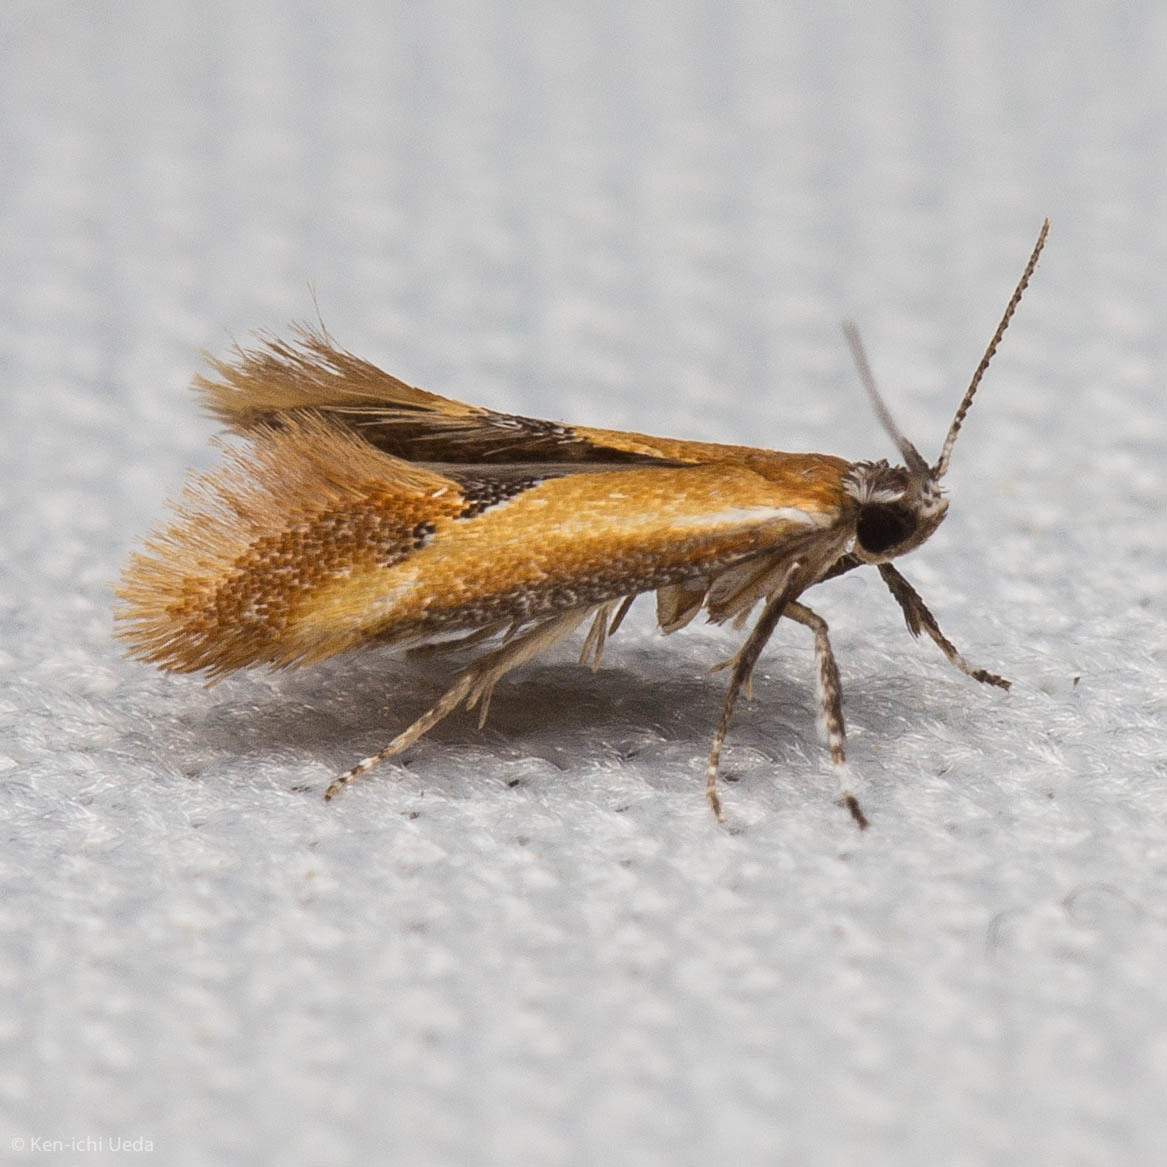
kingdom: Animalia
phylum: Arthropoda
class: Insecta
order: Lepidoptera
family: Oecophoridae
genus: Batia
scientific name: Batia lunaris
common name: Moth
